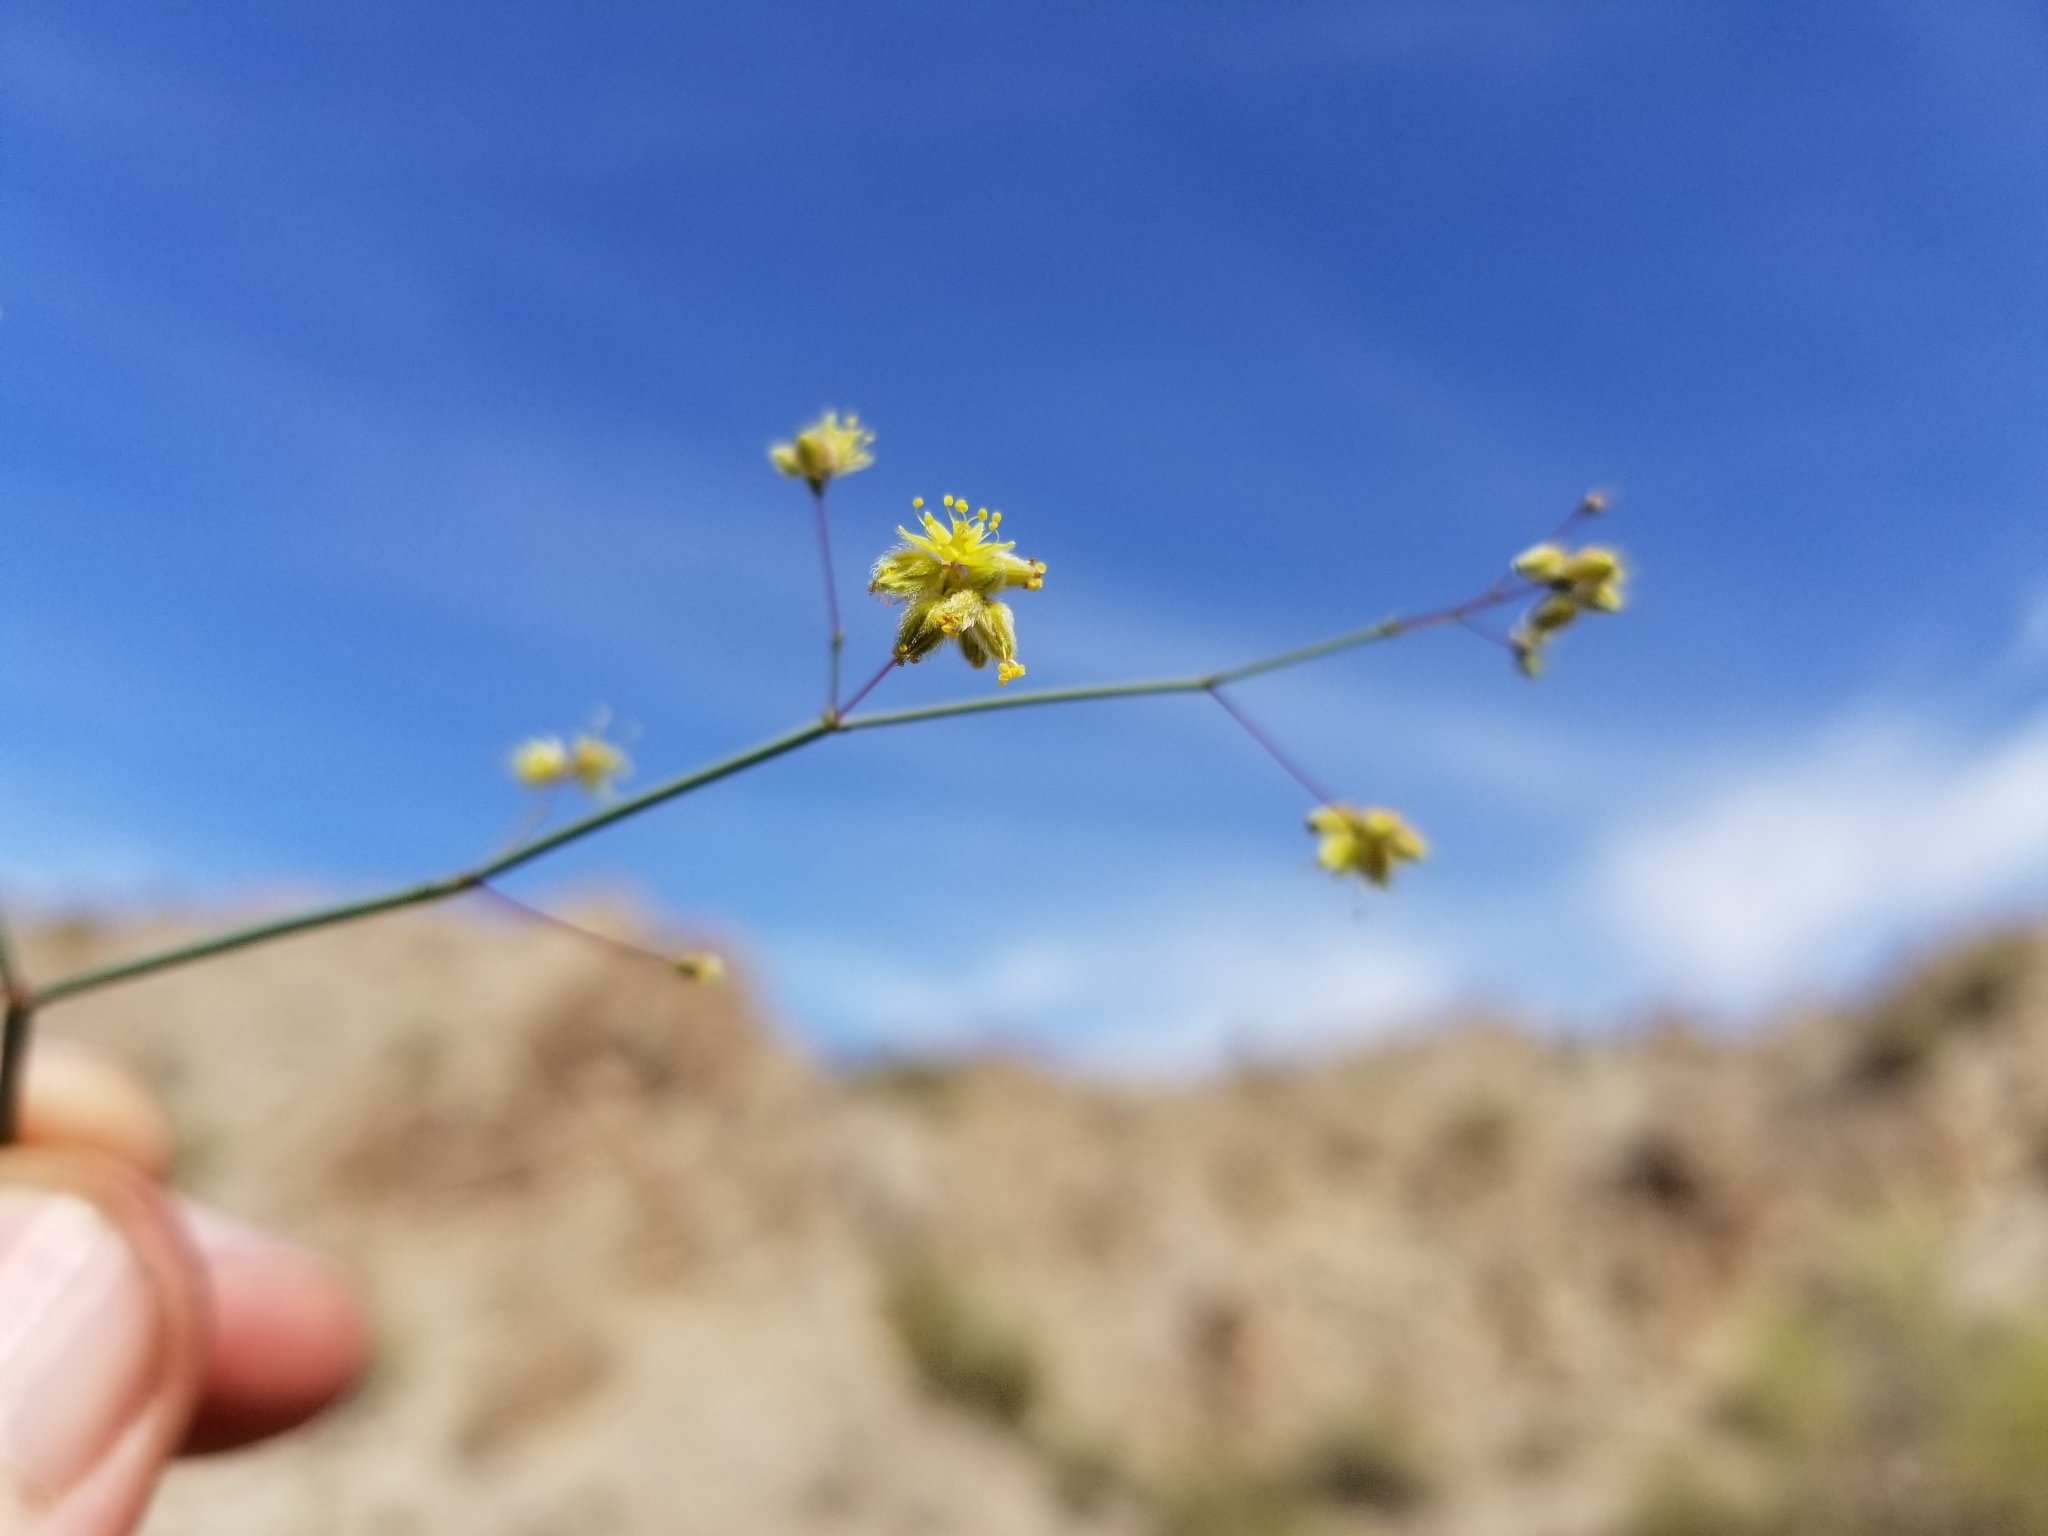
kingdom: Plantae
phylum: Tracheophyta
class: Magnoliopsida
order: Caryophyllales
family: Polygonaceae
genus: Eriogonum
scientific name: Eriogonum inflatum
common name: Desert trumpet
